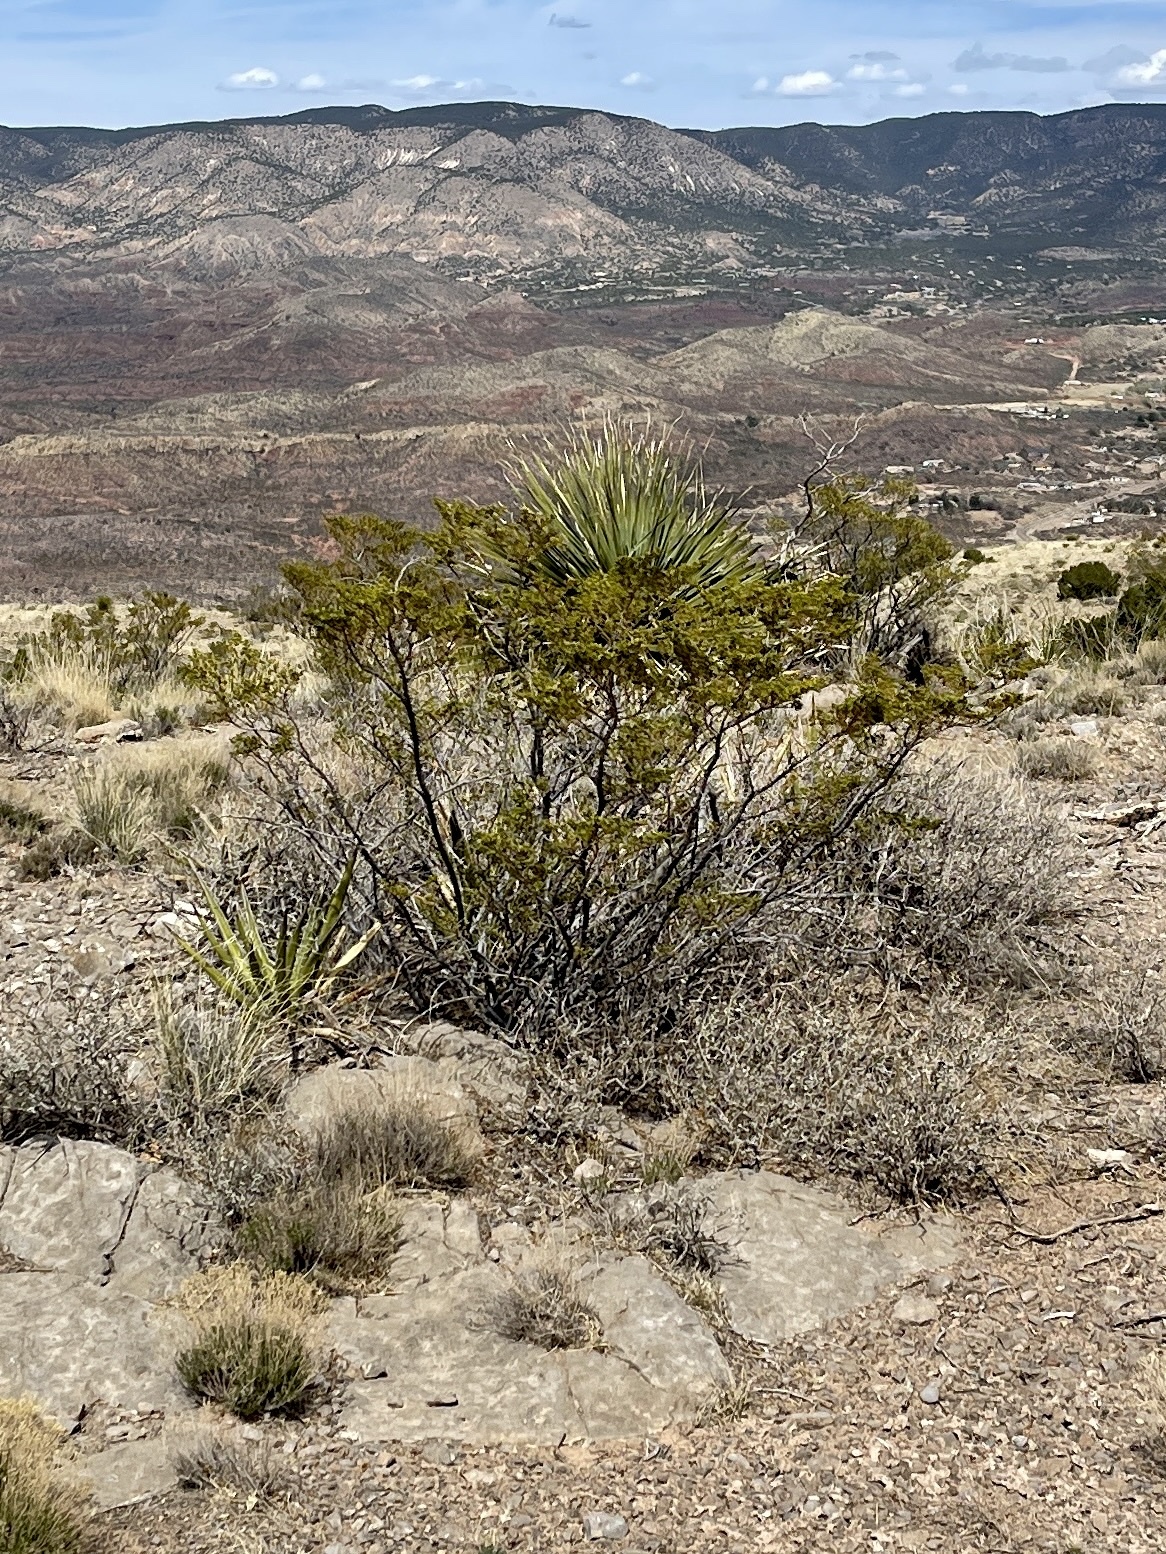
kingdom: Plantae
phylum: Tracheophyta
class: Magnoliopsida
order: Zygophyllales
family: Zygophyllaceae
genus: Larrea
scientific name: Larrea tridentata
